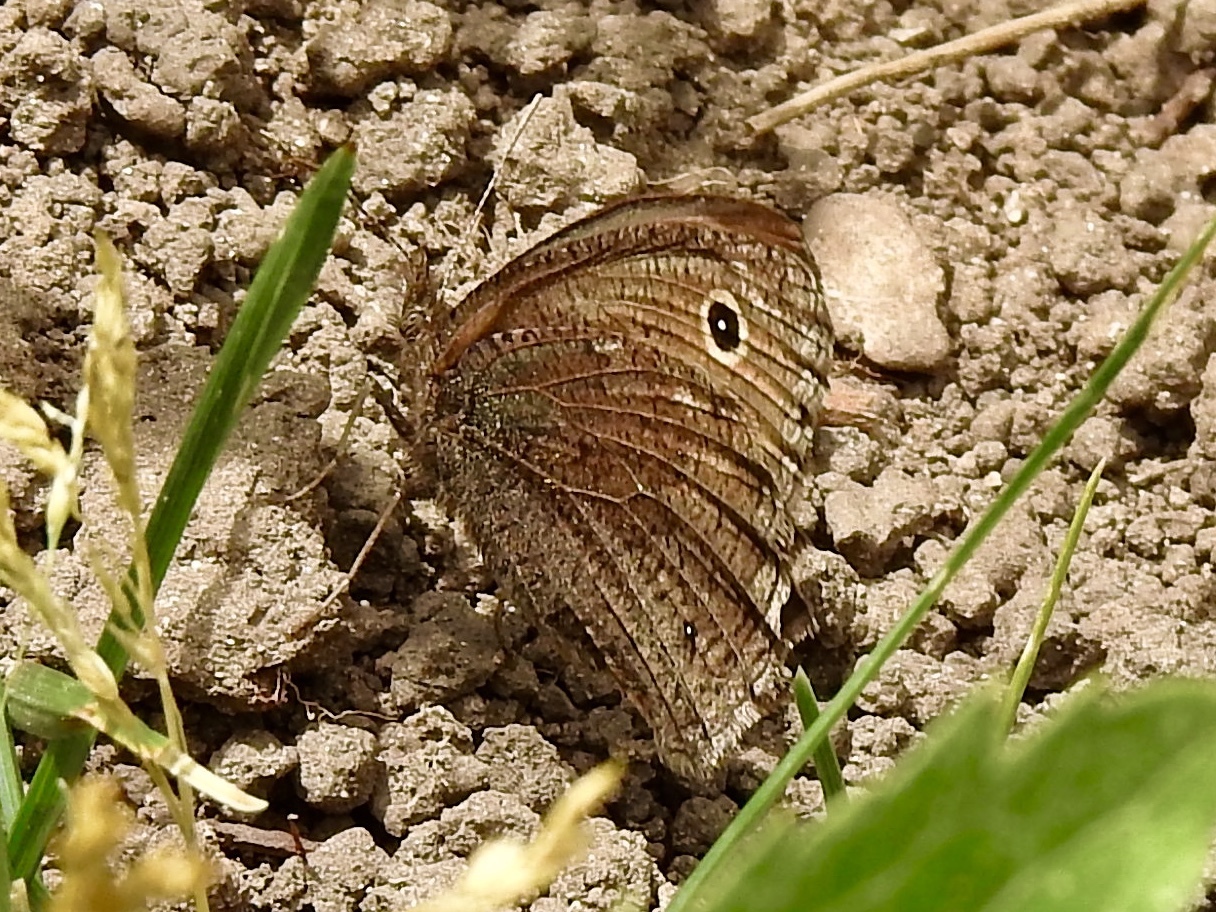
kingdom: Animalia
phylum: Arthropoda
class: Insecta
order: Lepidoptera
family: Nymphalidae
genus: Cercyonis
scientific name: Cercyonis oetus
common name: Small wood-nymph
